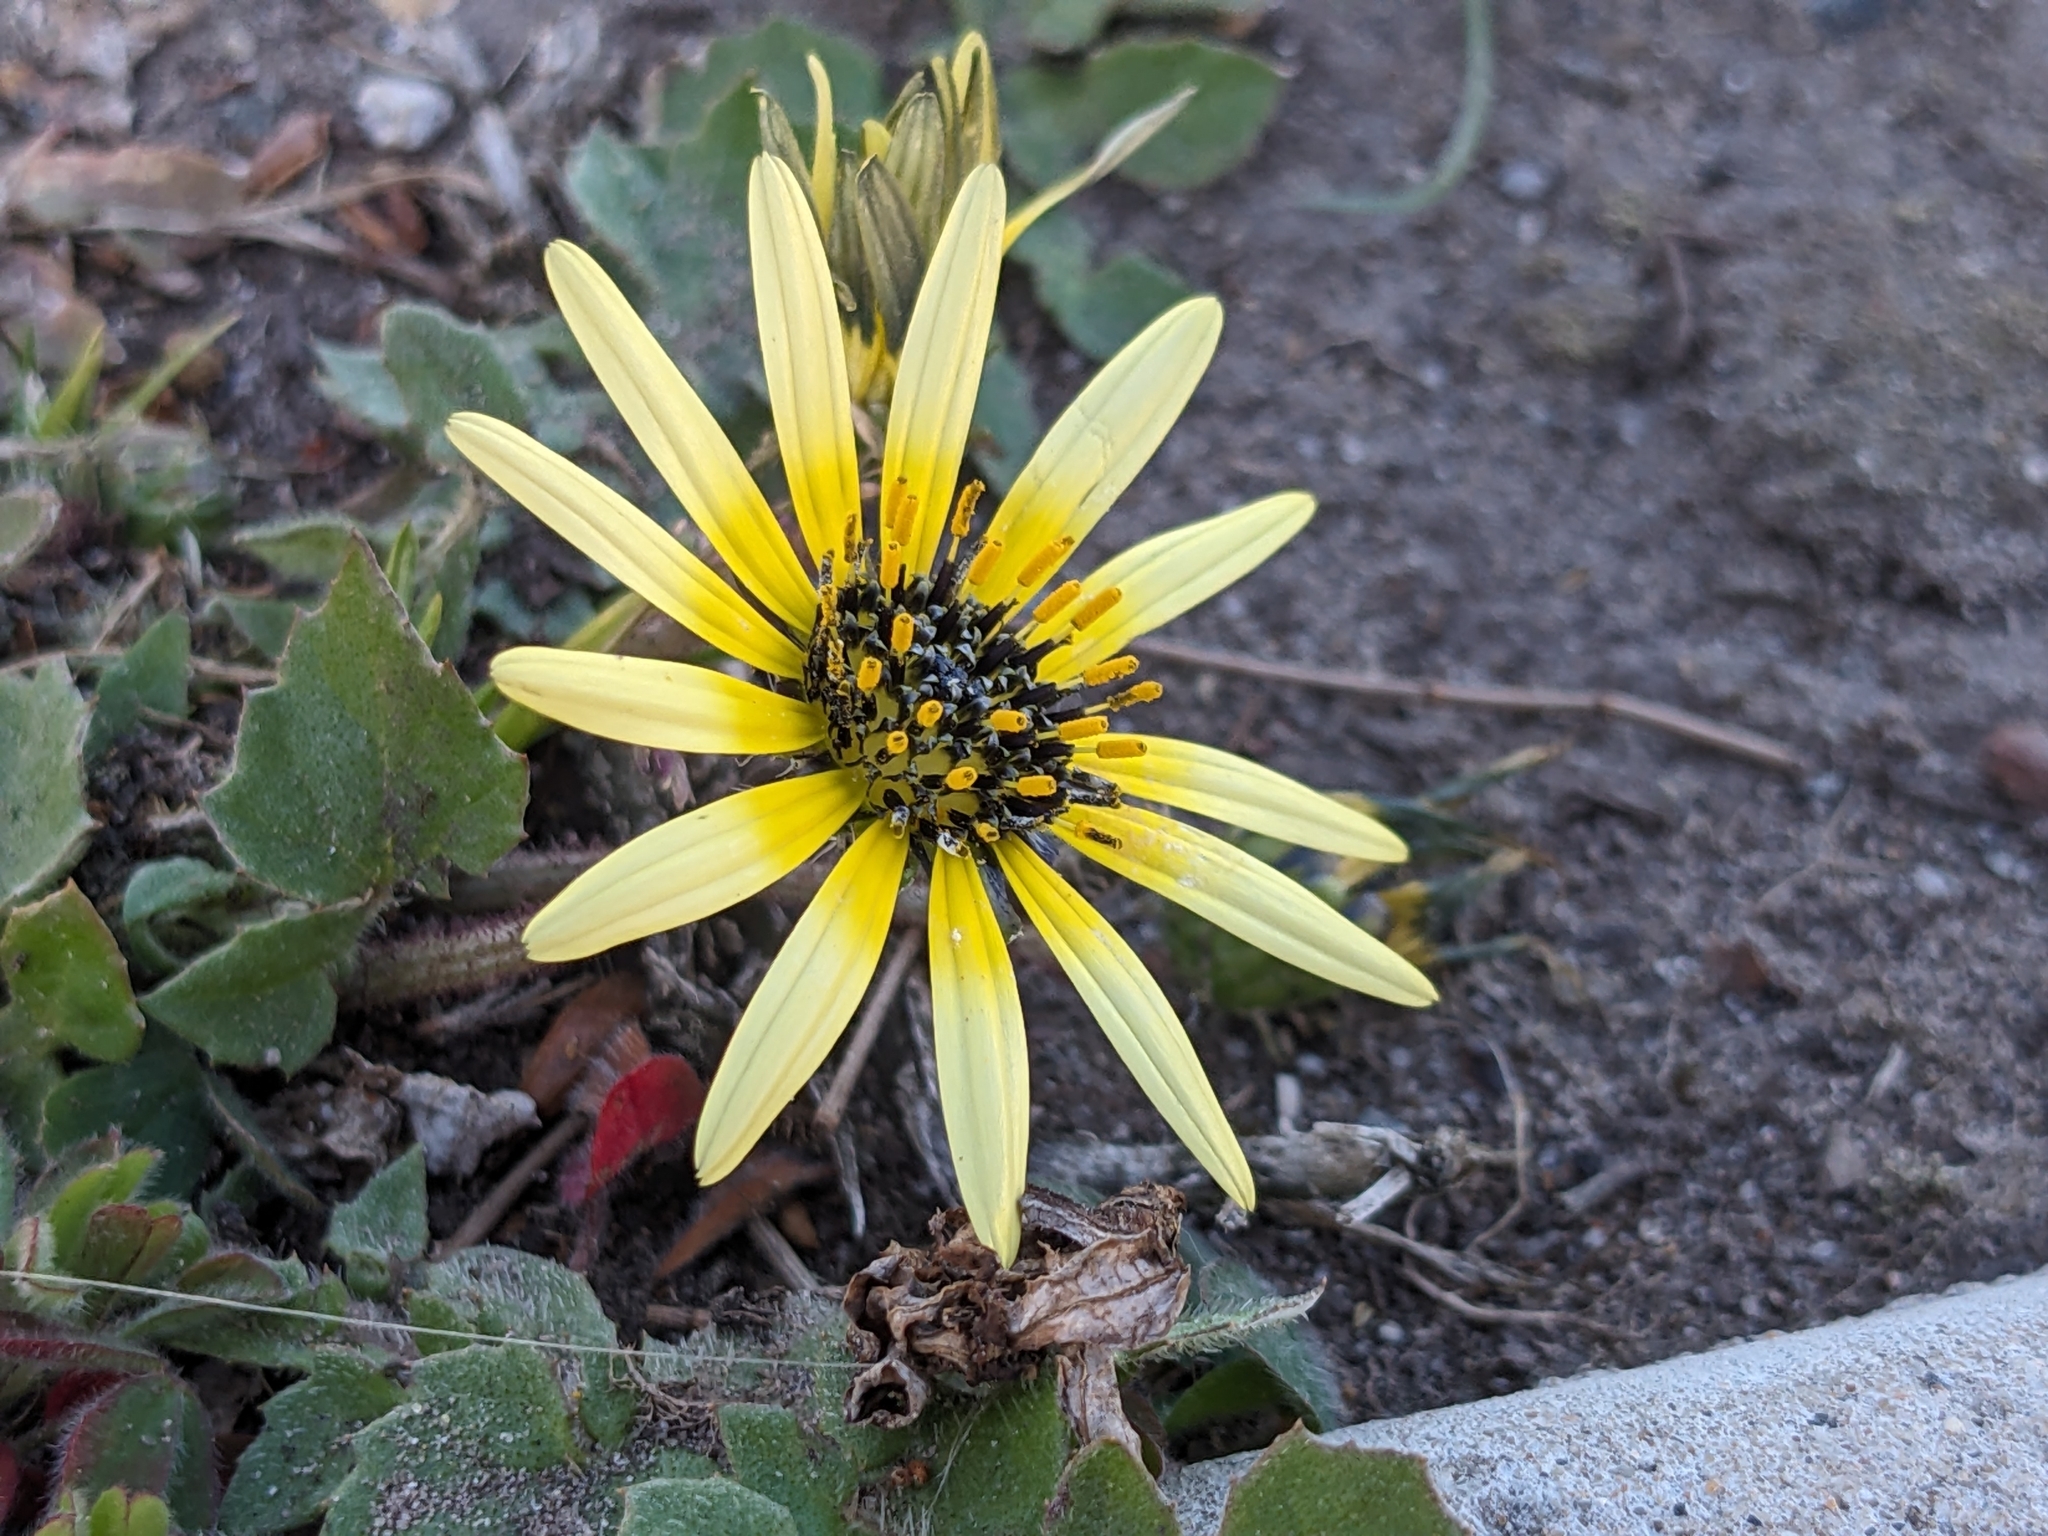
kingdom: Plantae
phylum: Tracheophyta
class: Magnoliopsida
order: Asterales
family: Asteraceae
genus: Arctotheca
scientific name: Arctotheca calendula
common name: Capeweed
